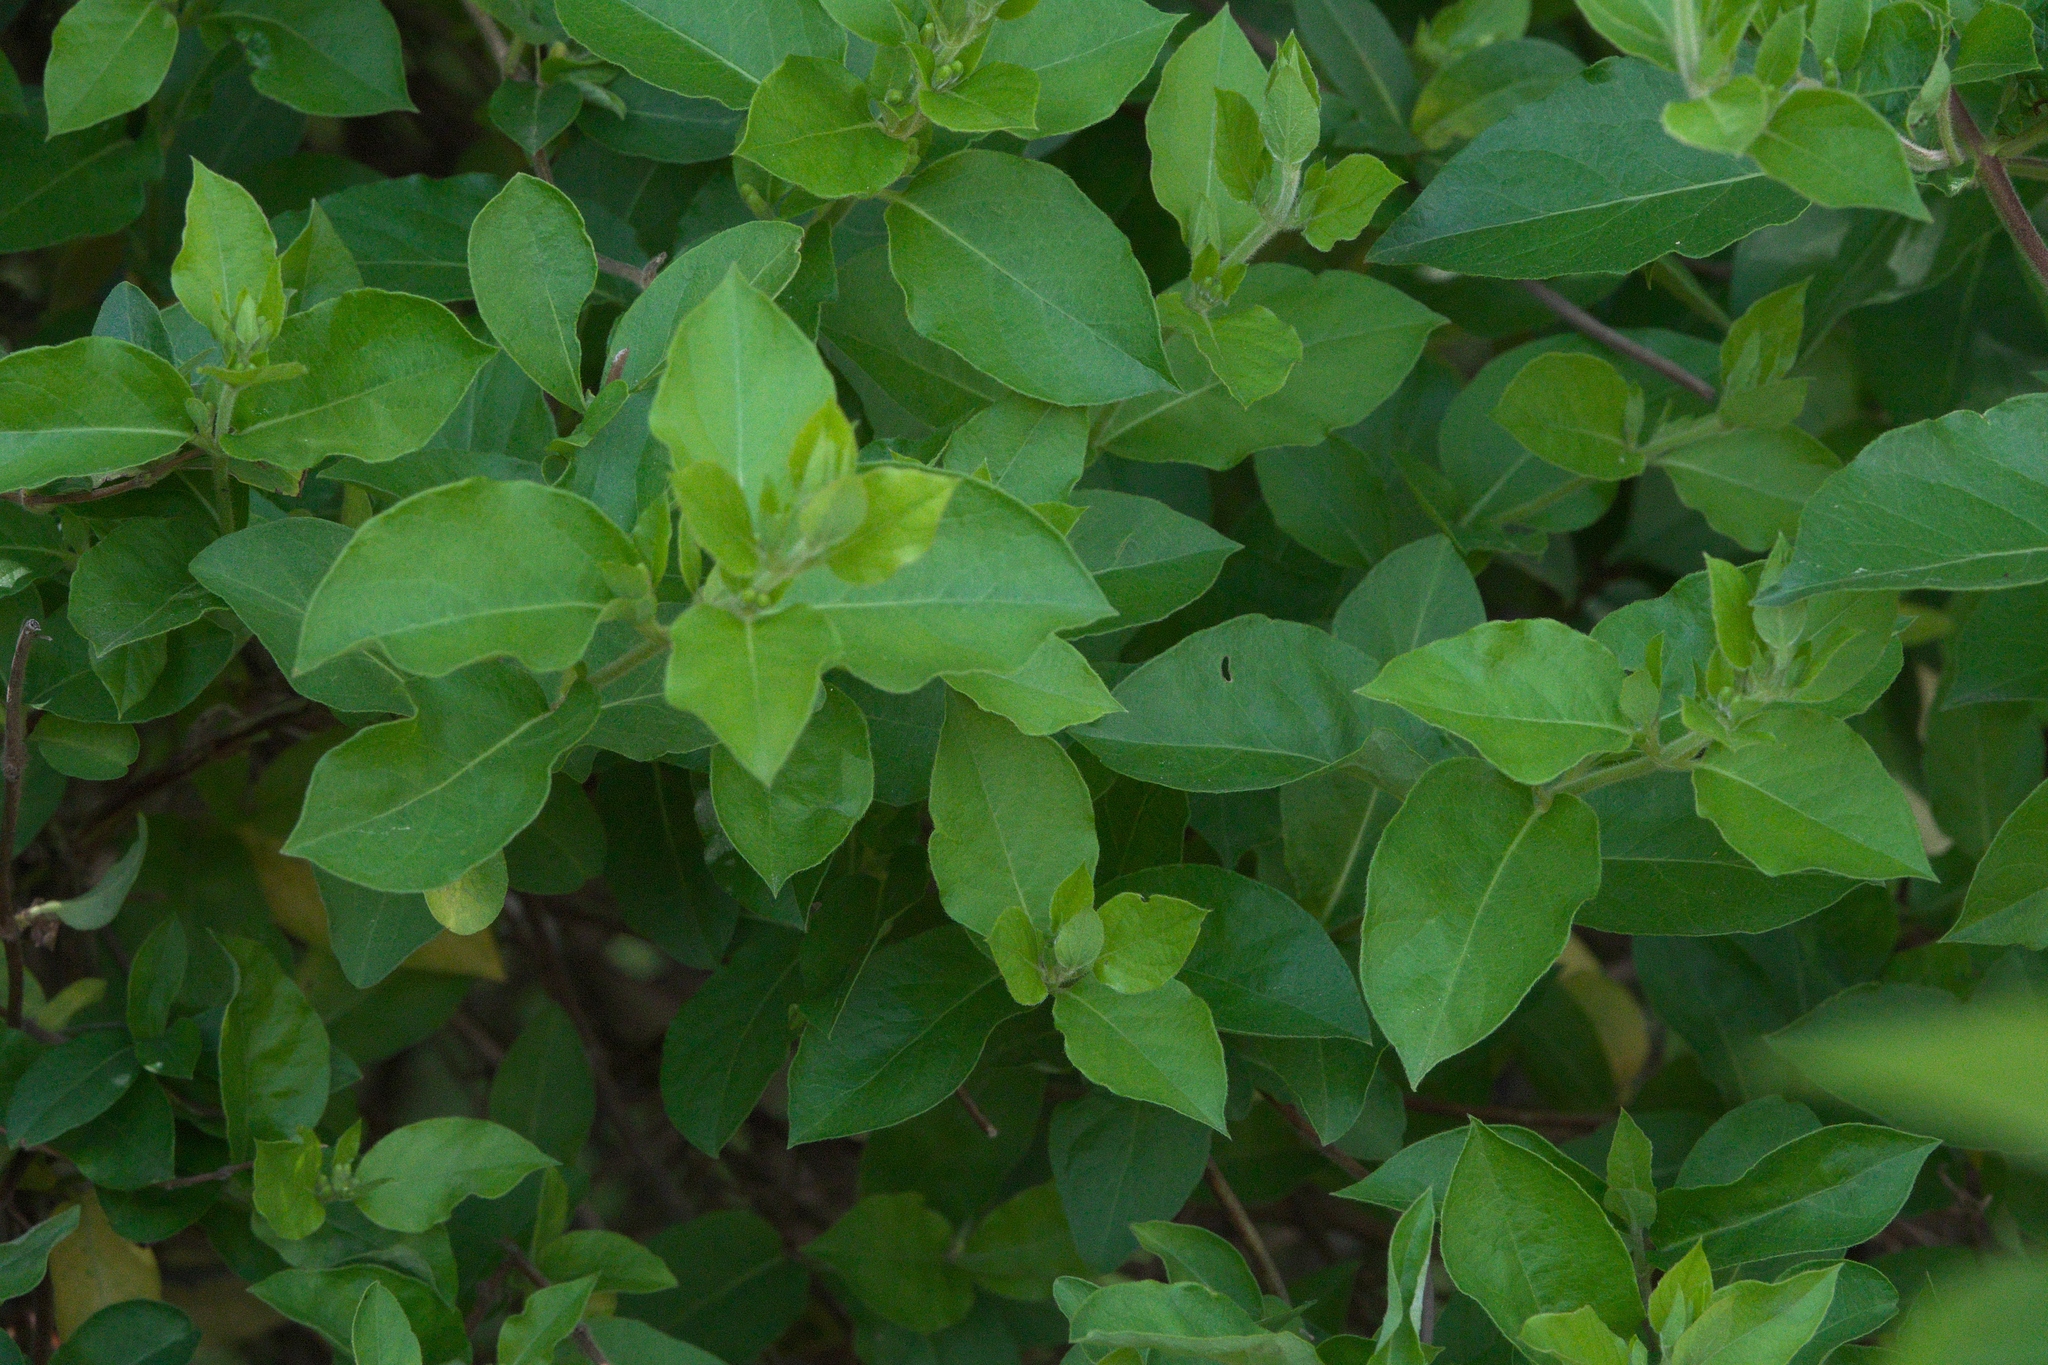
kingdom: Plantae
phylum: Tracheophyta
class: Magnoliopsida
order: Dipsacales
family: Caprifoliaceae
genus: Lonicera
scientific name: Lonicera japonica
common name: Japanese honeysuckle
